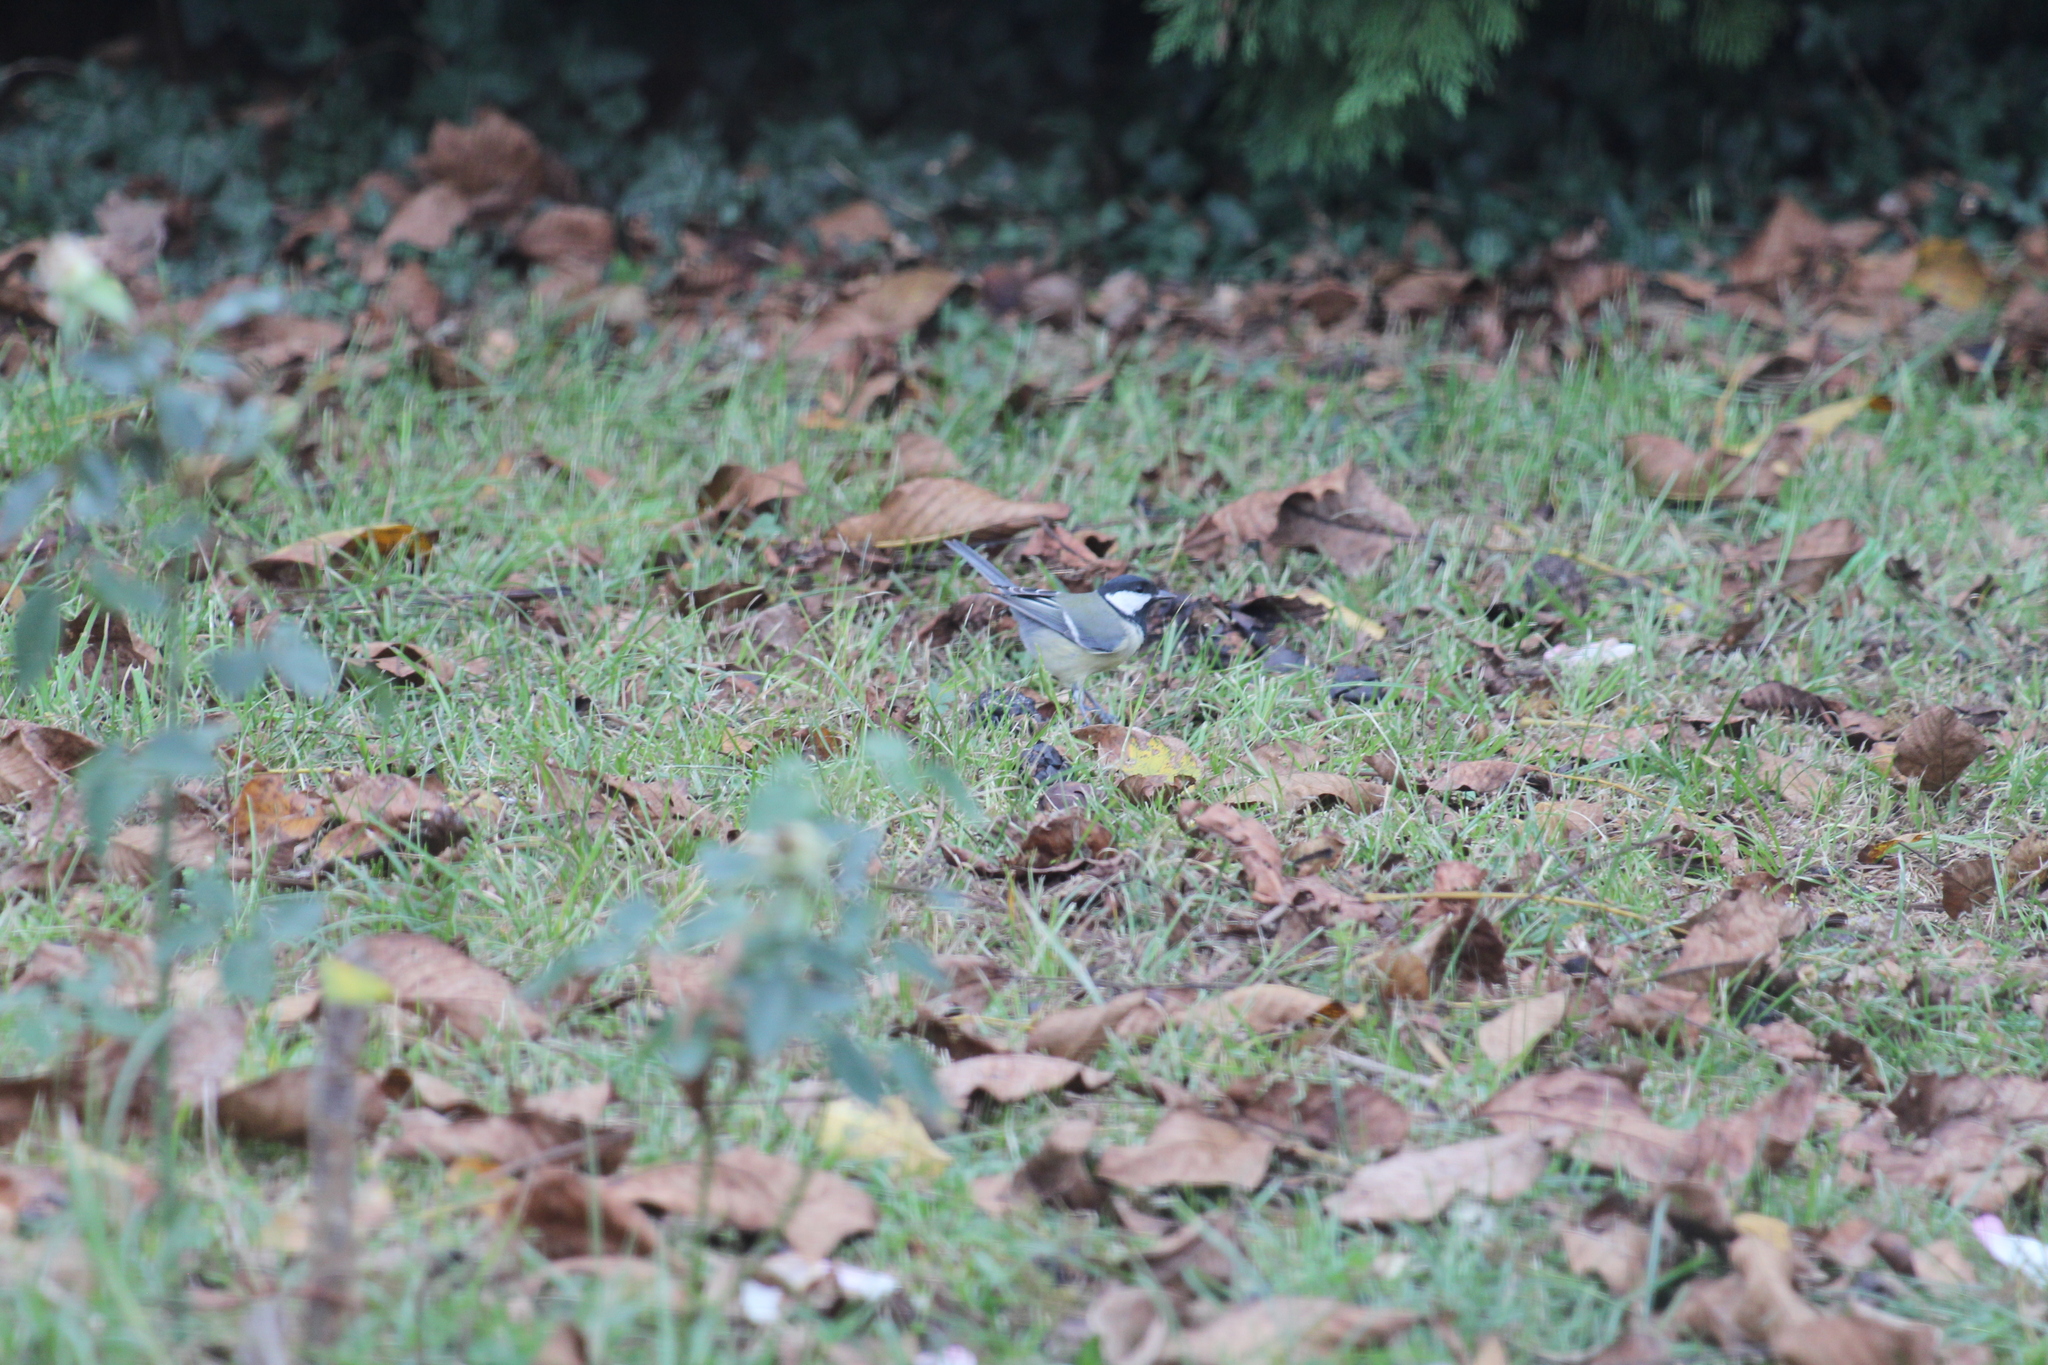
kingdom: Animalia
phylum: Chordata
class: Aves
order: Passeriformes
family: Paridae
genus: Parus
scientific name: Parus major
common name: Great tit
